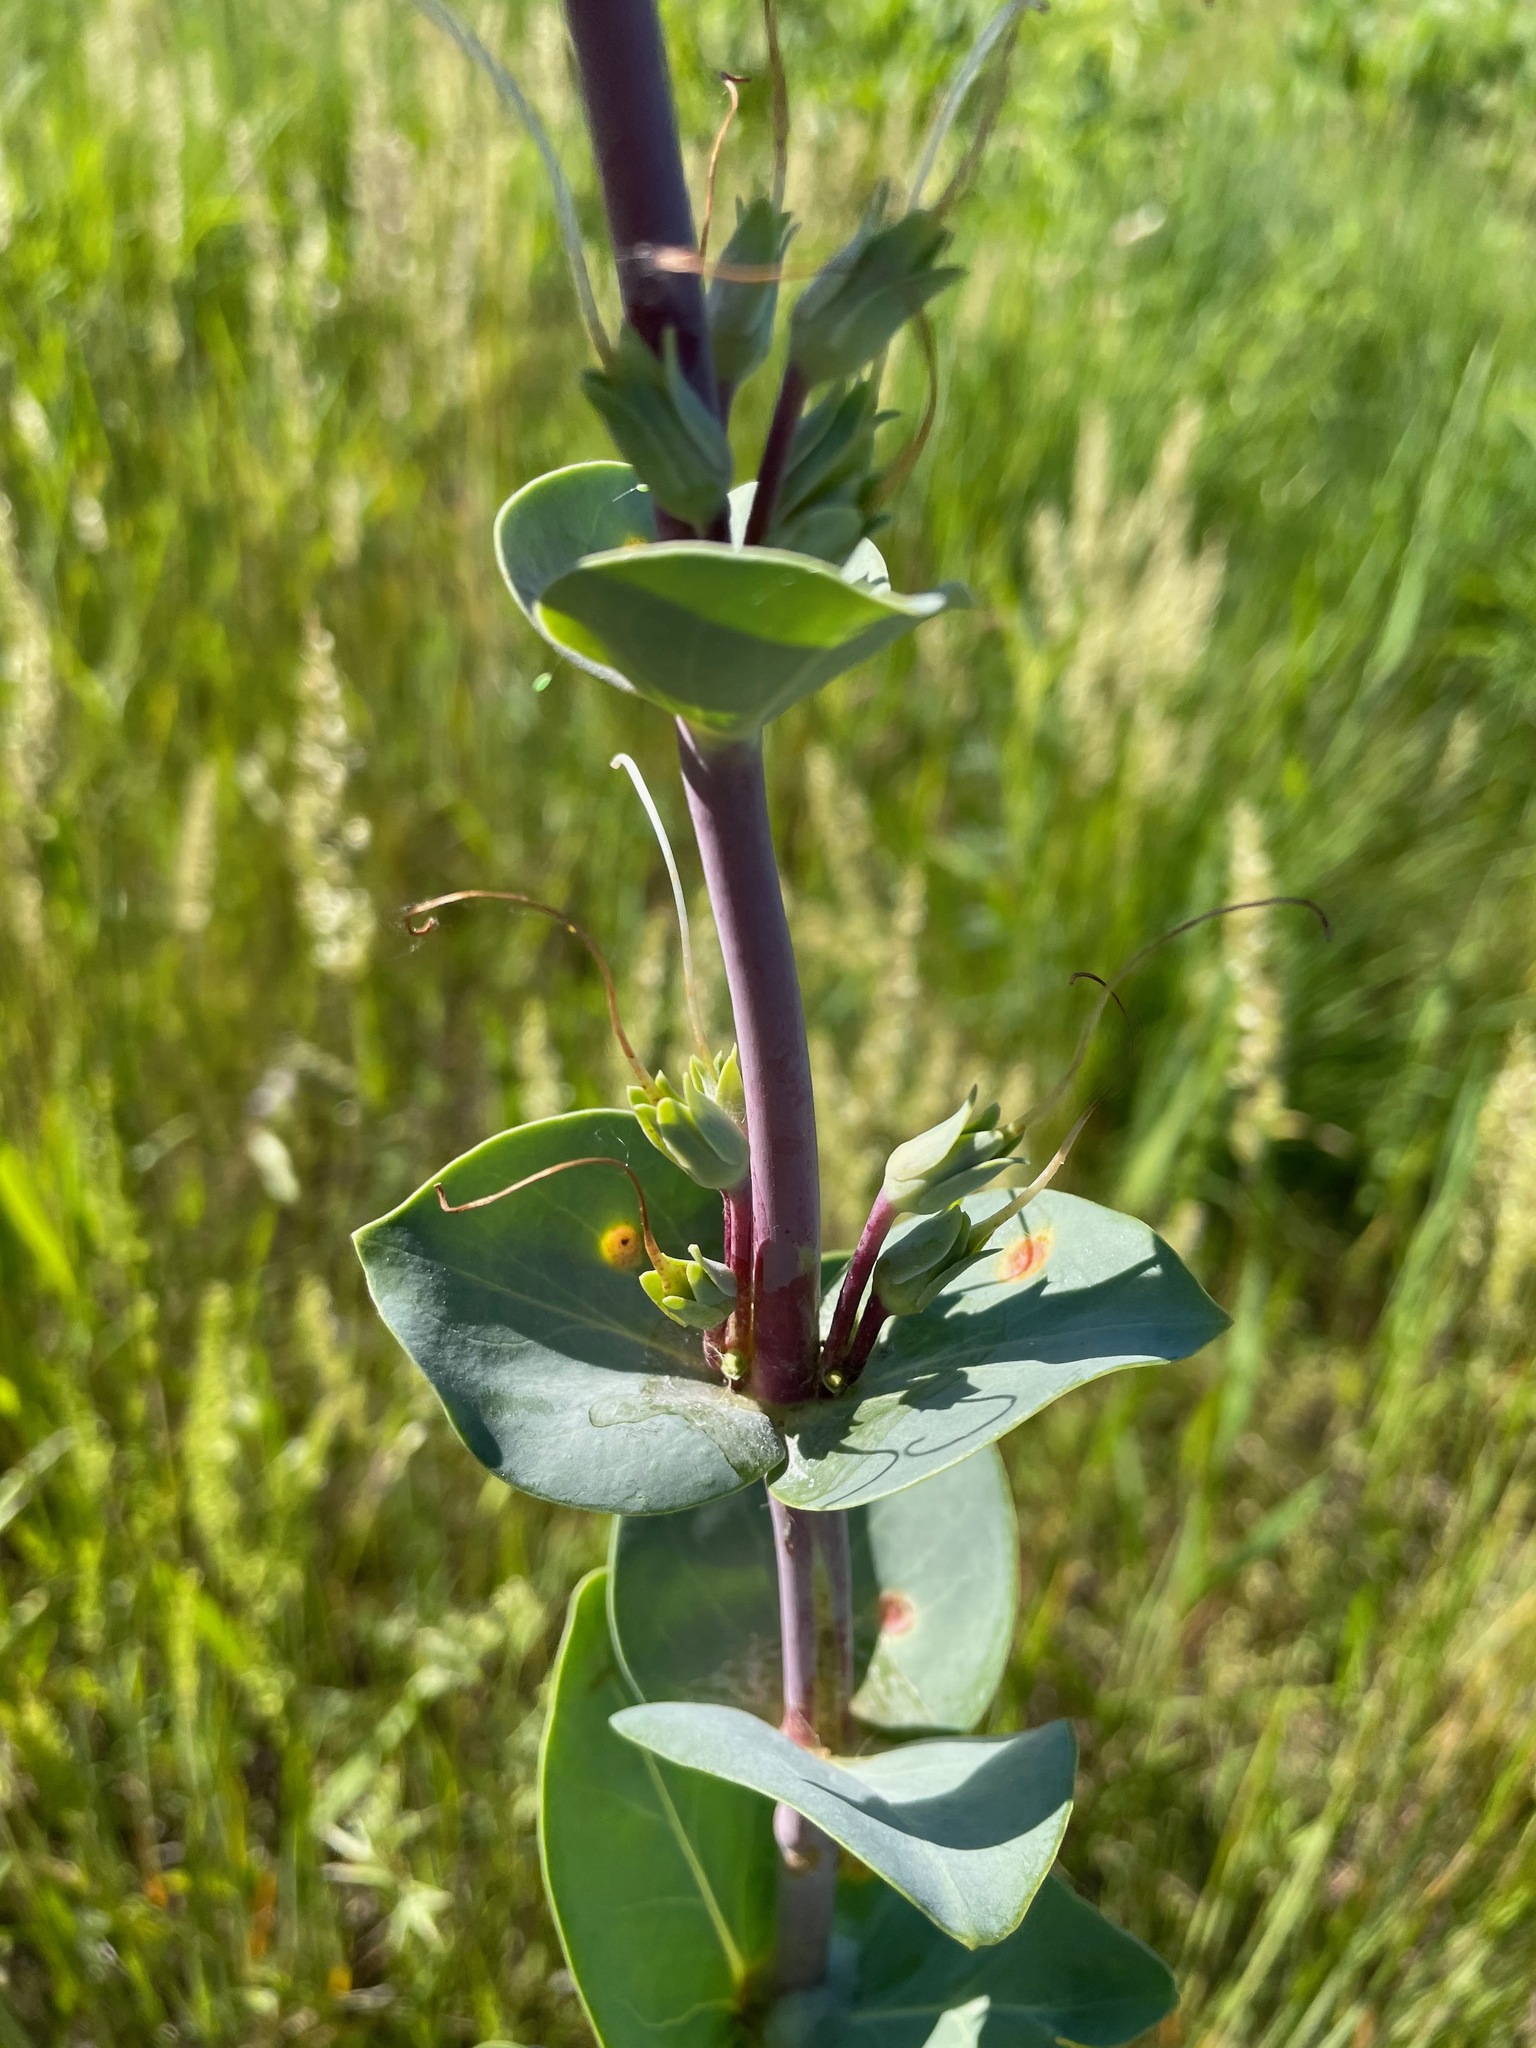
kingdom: Plantae
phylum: Tracheophyta
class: Magnoliopsida
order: Lamiales
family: Plantaginaceae
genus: Penstemon
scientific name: Penstemon
